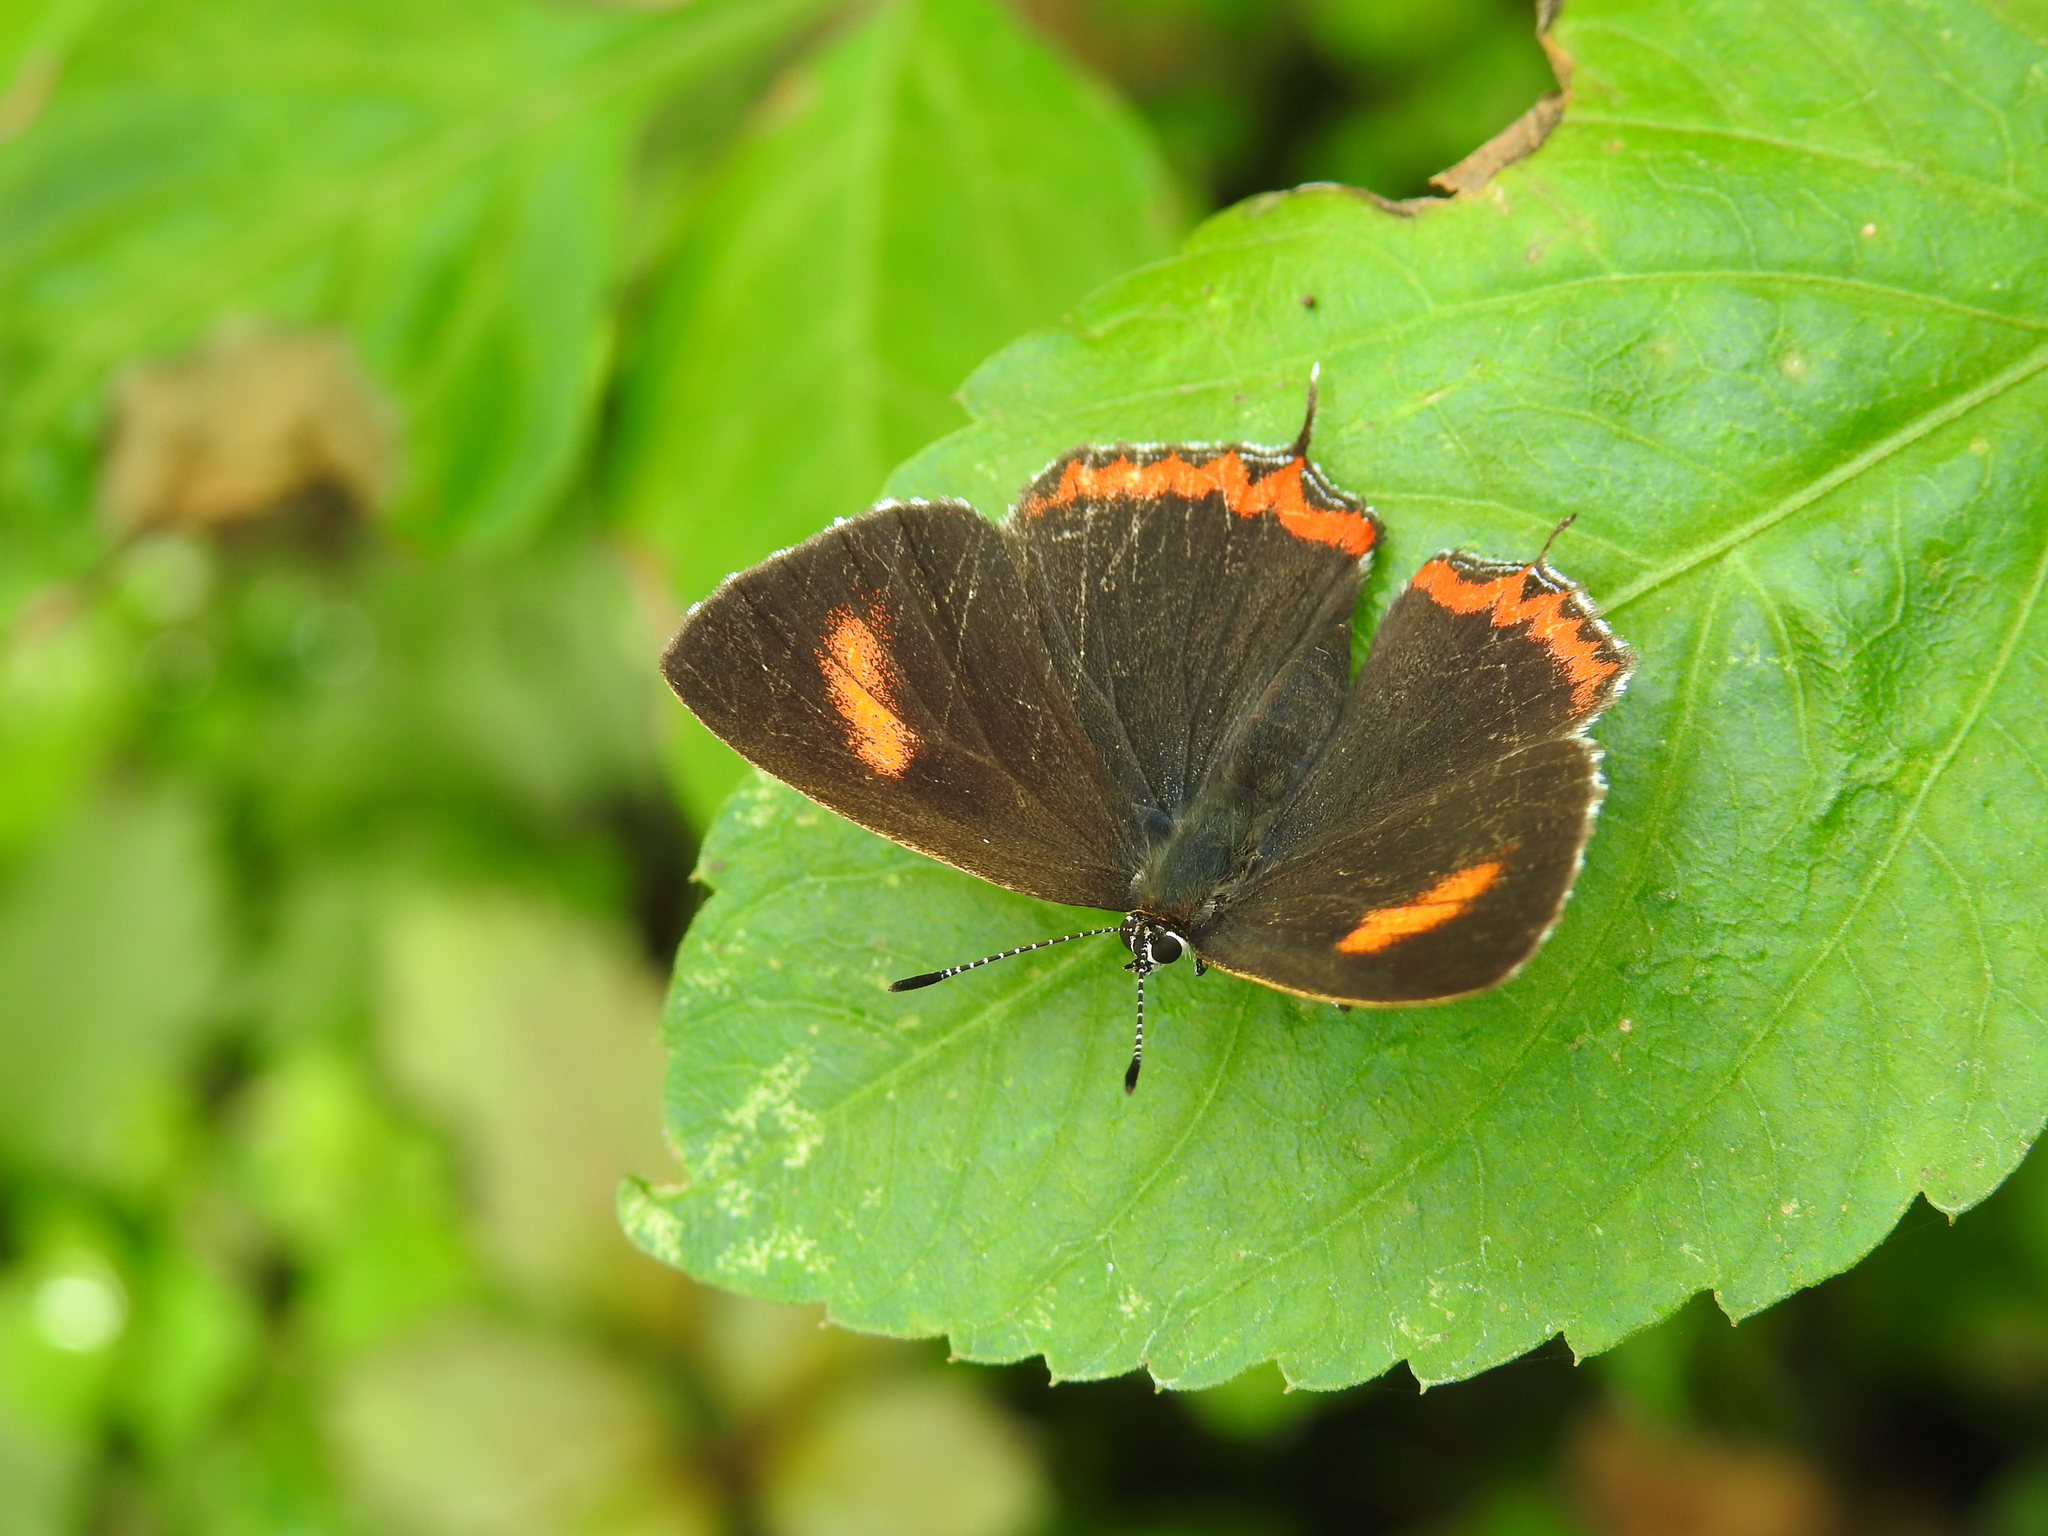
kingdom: Animalia
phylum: Arthropoda
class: Insecta
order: Lepidoptera
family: Lycaenidae
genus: Heliophorus
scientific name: Heliophorus ila
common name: Restricted purple sapphire
